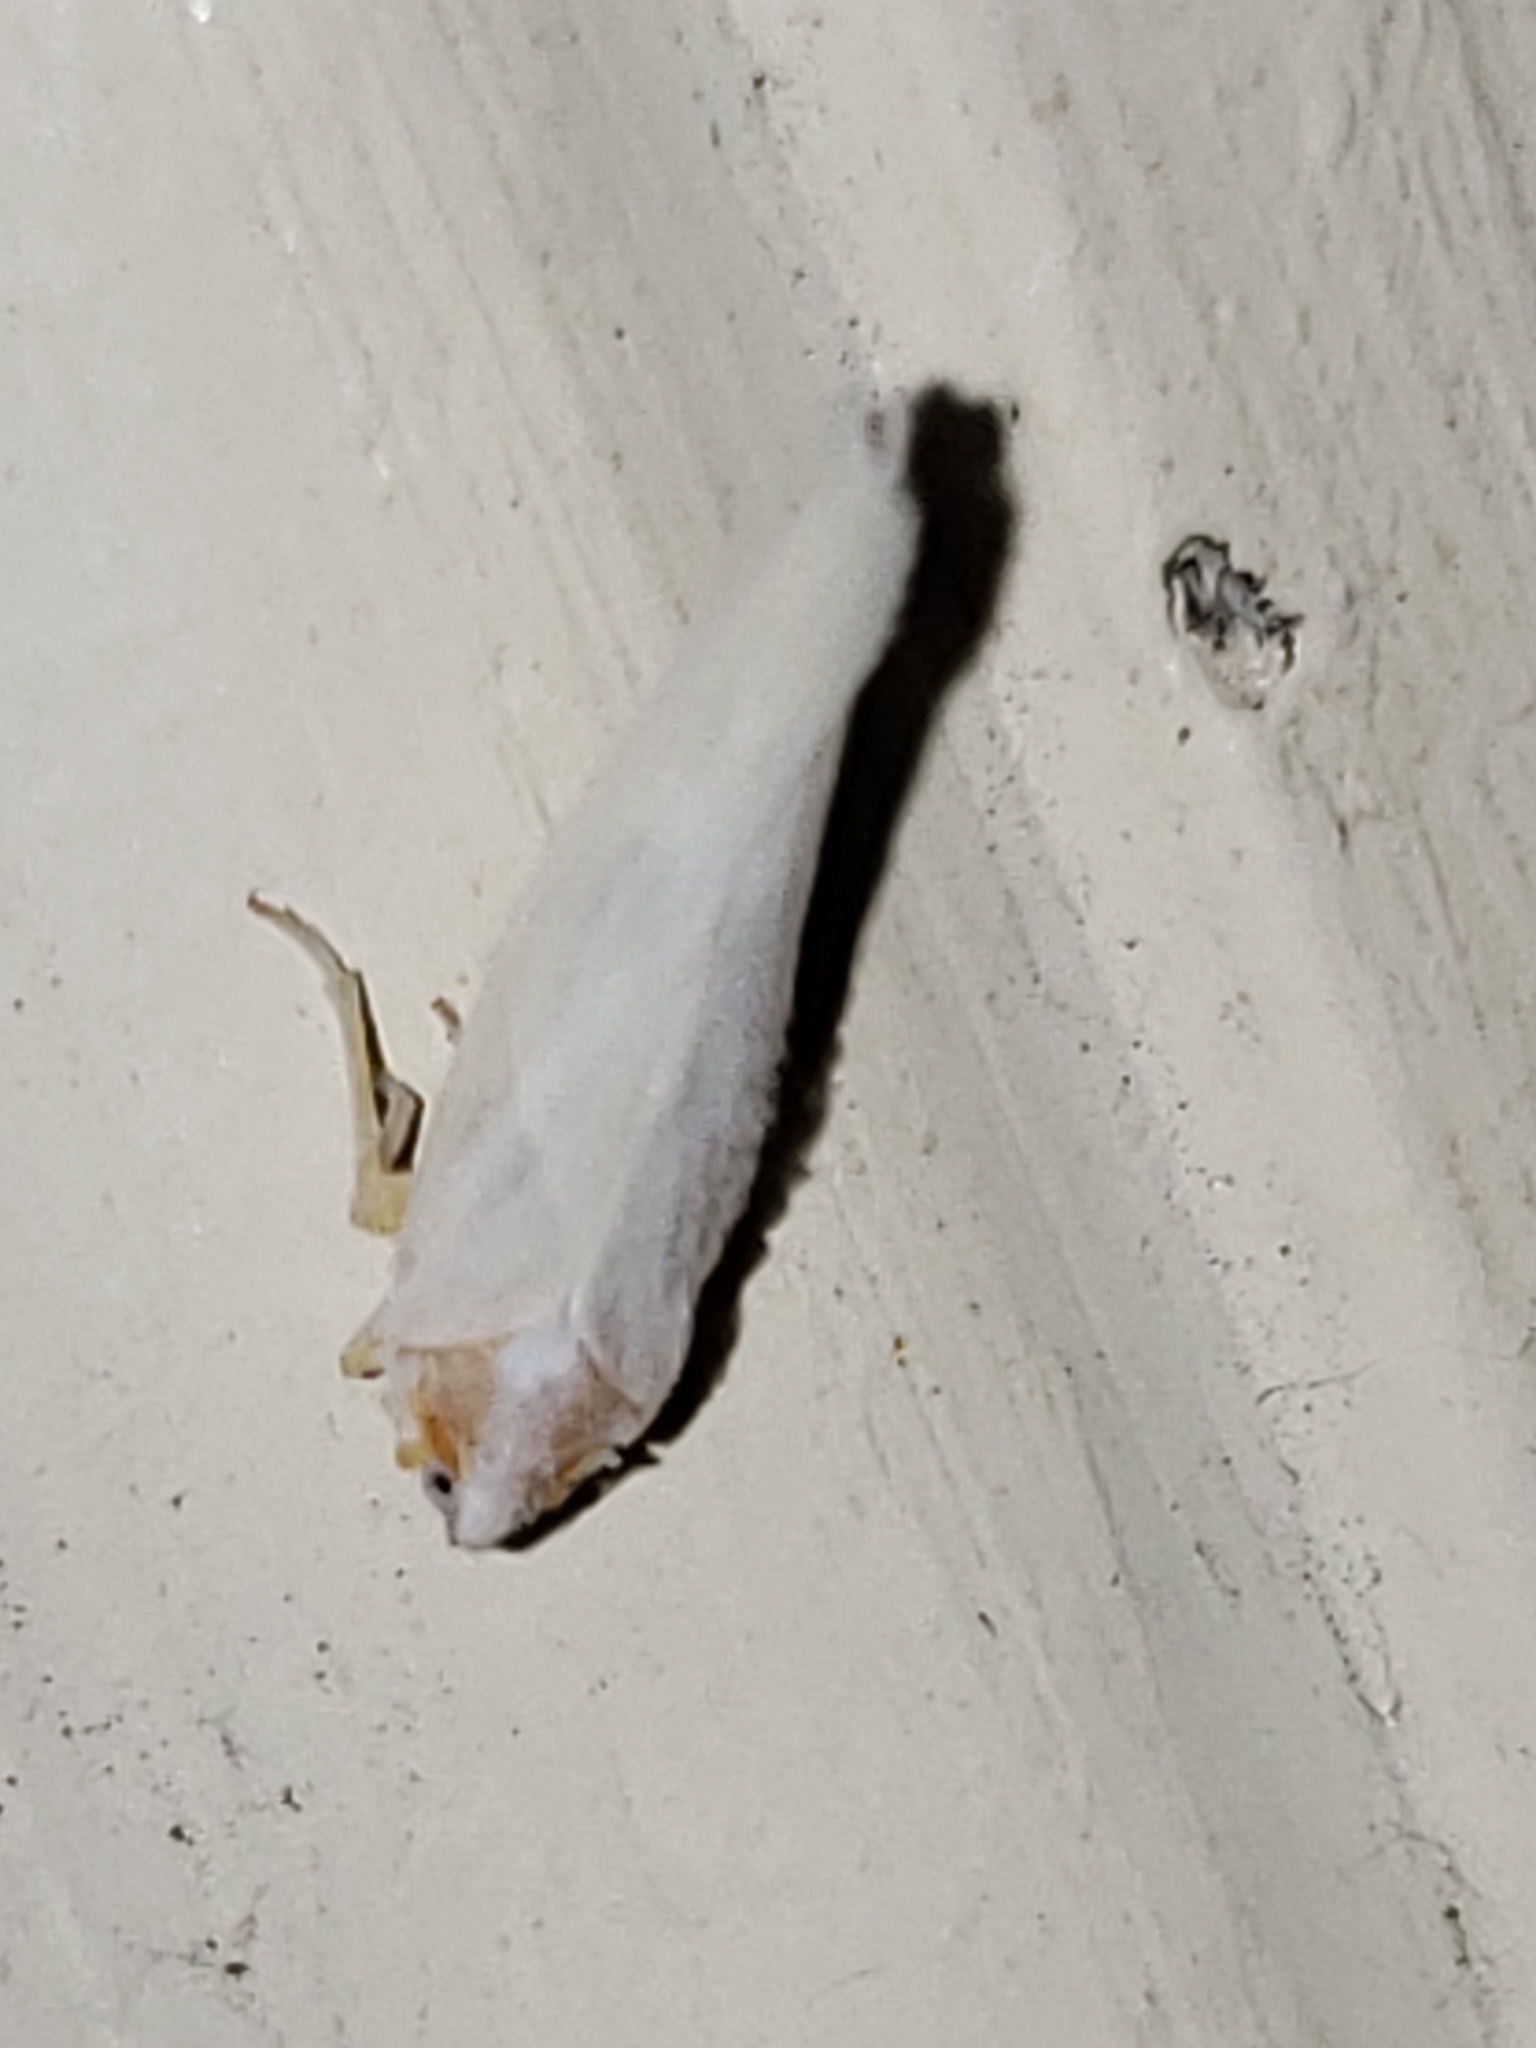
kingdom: Animalia
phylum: Arthropoda
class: Insecta
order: Hemiptera
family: Derbidae
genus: Neocenchrea
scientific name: Neocenchrea heidemanni
